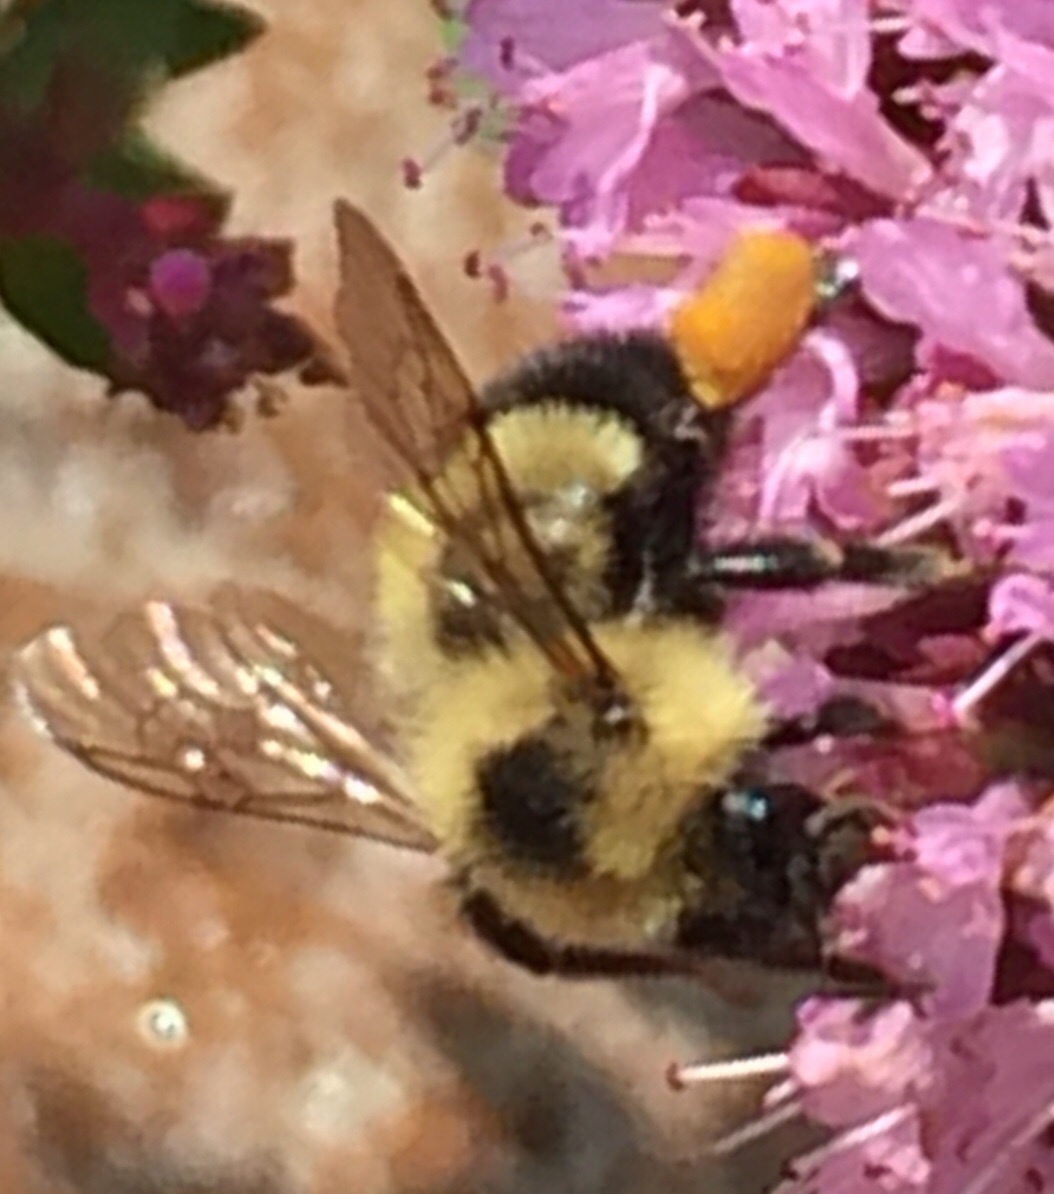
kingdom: Animalia
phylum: Arthropoda
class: Insecta
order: Hymenoptera
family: Apidae
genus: Bombus
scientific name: Bombus vagans
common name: Half-black bumble bee
